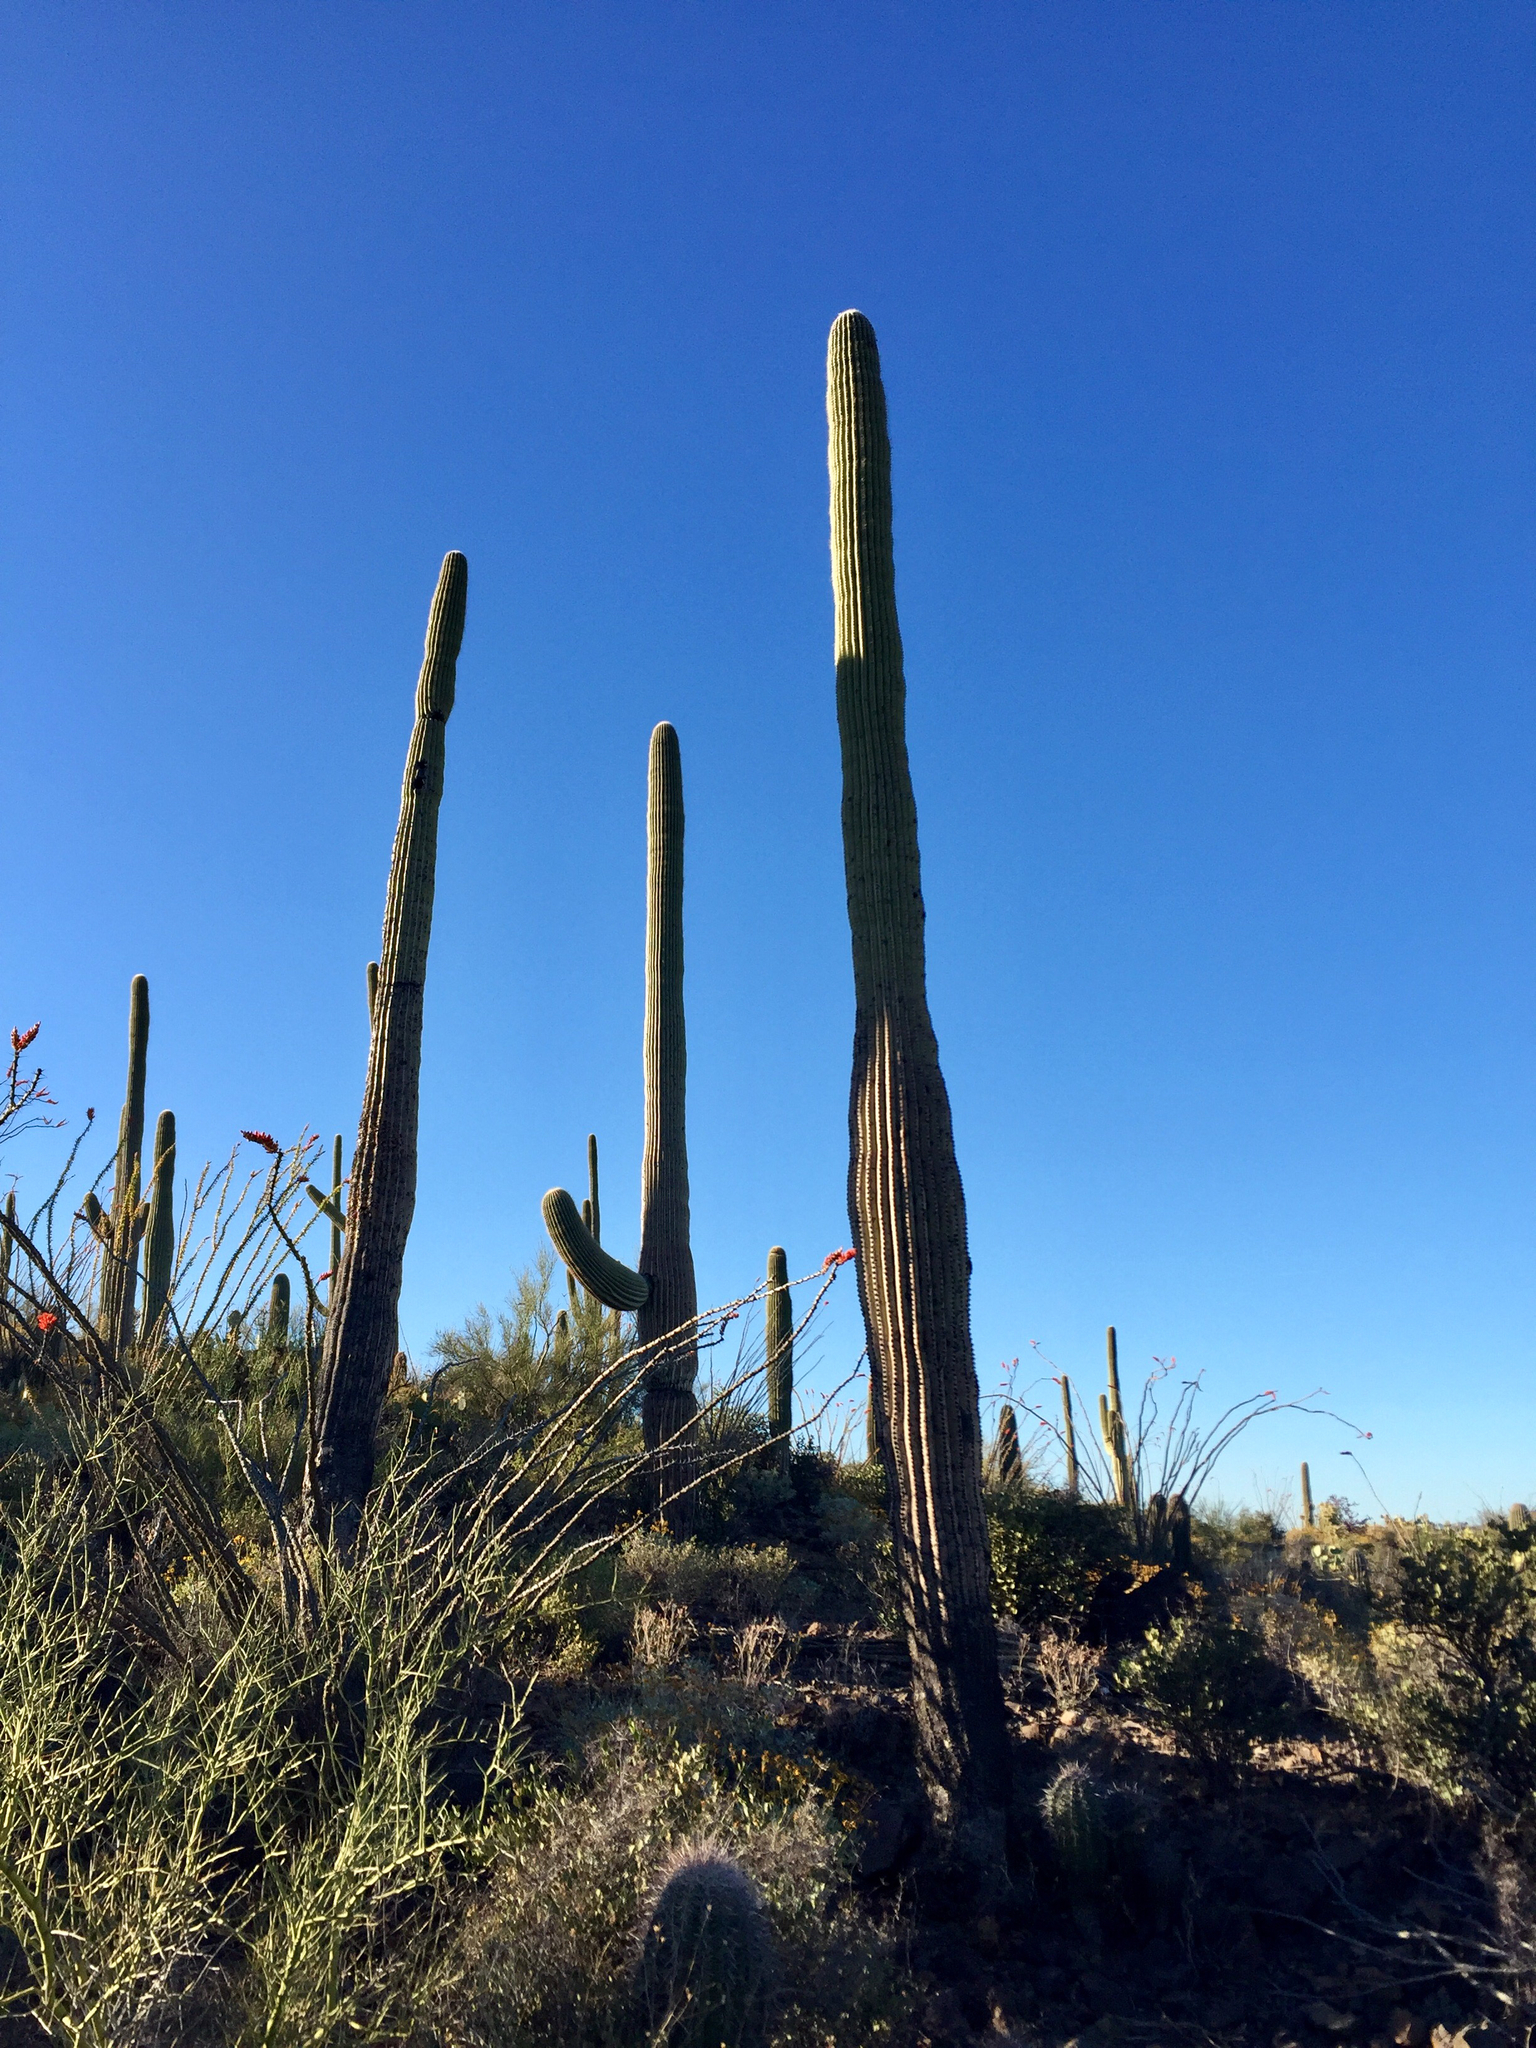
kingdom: Plantae
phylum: Tracheophyta
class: Magnoliopsida
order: Caryophyllales
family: Cactaceae
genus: Carnegiea
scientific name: Carnegiea gigantea
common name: Saguaro
